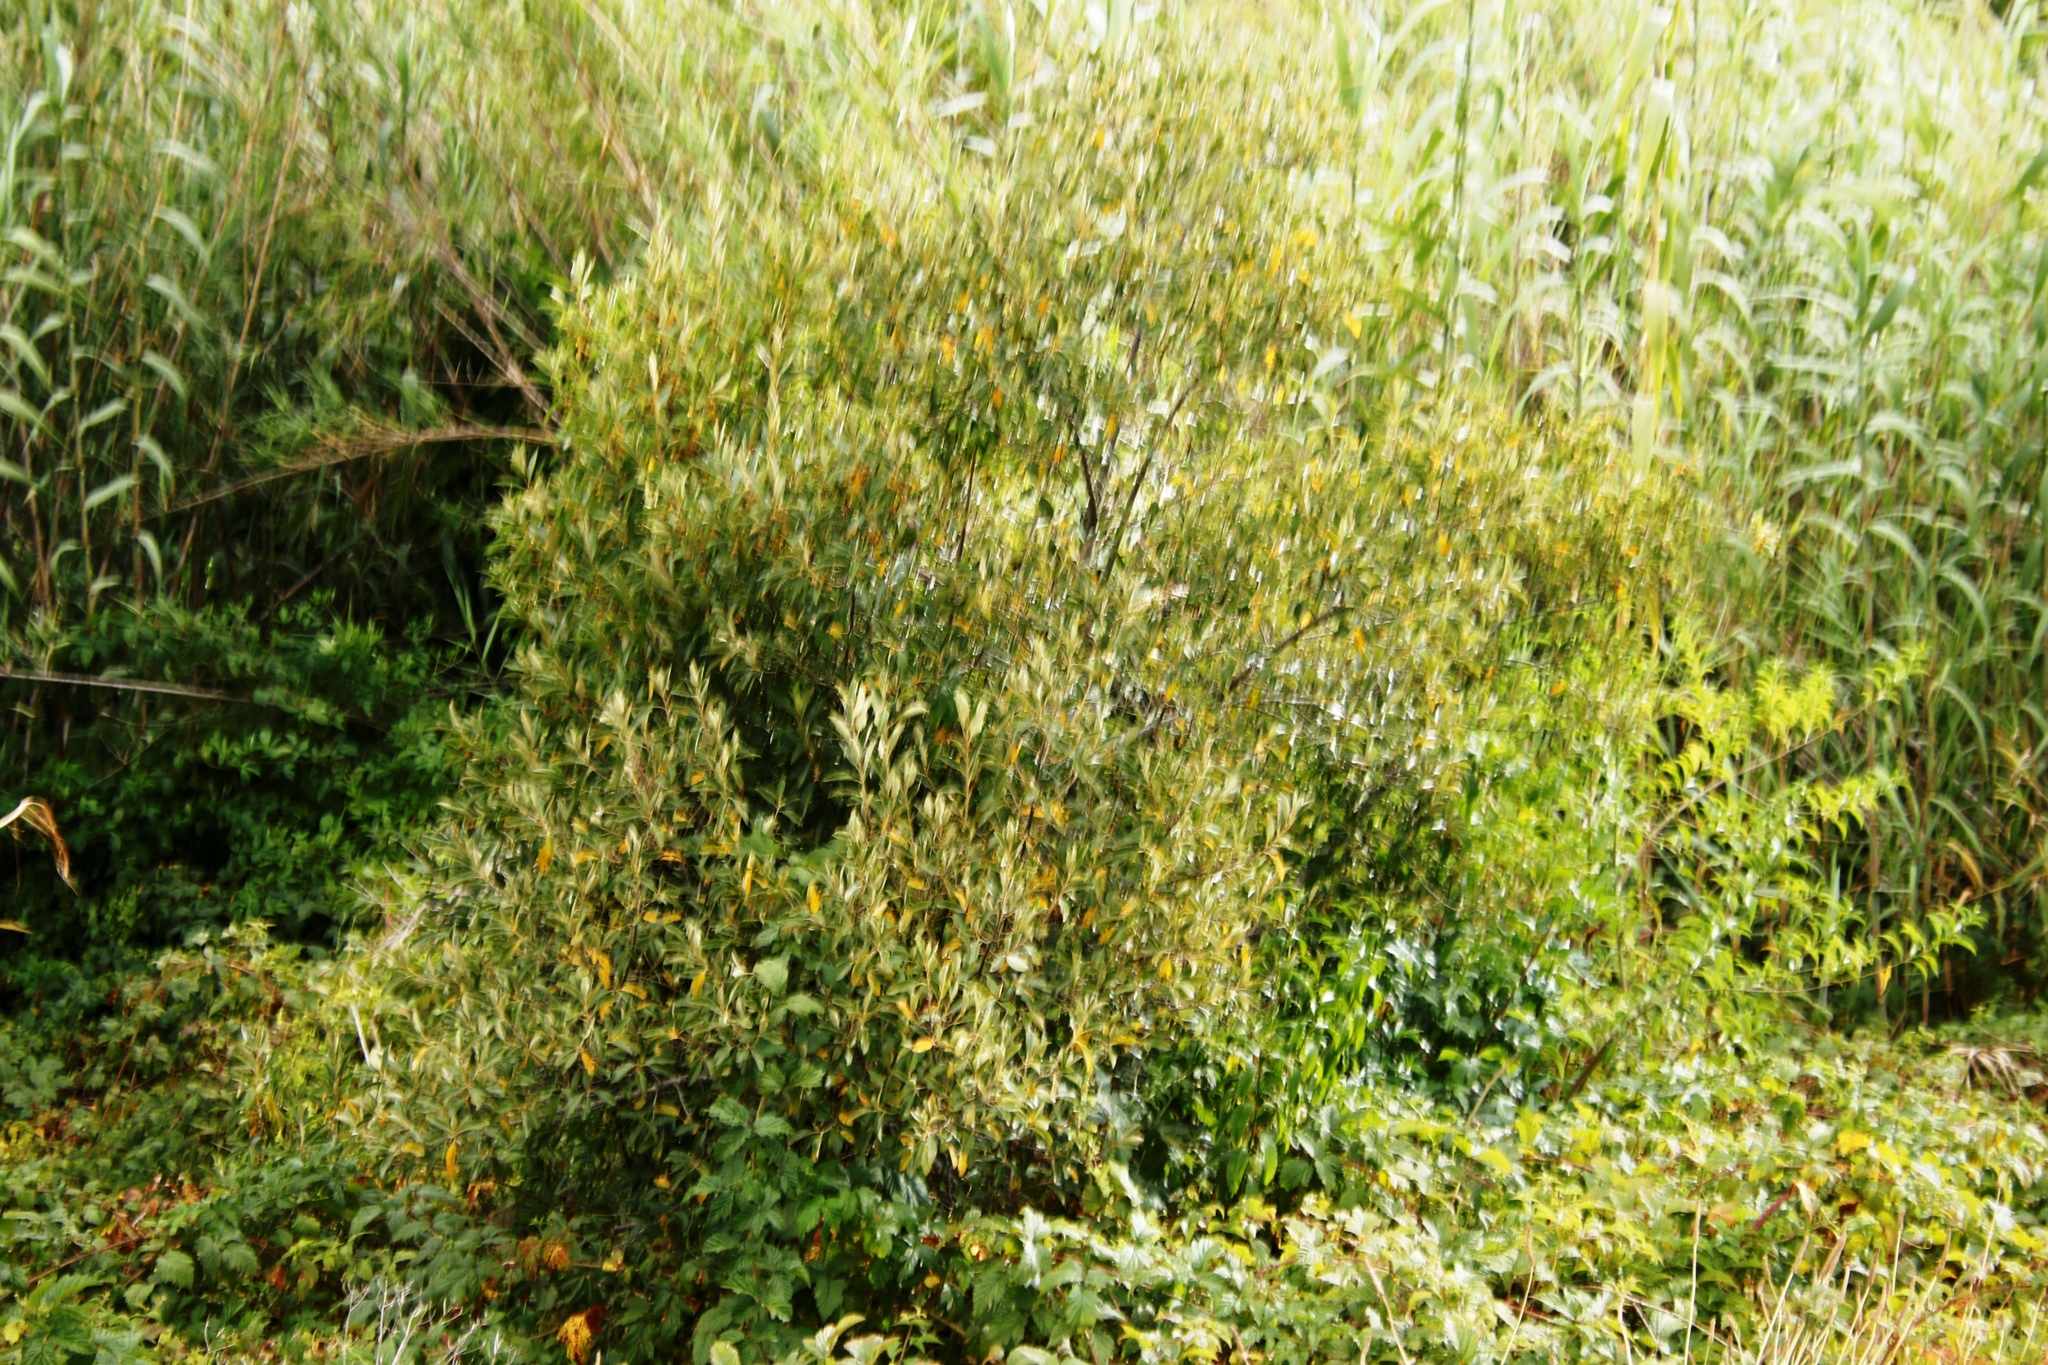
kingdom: Plantae
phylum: Tracheophyta
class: Magnoliopsida
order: Malpighiales
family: Achariaceae
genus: Kiggelaria
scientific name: Kiggelaria africana
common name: Wild peach
